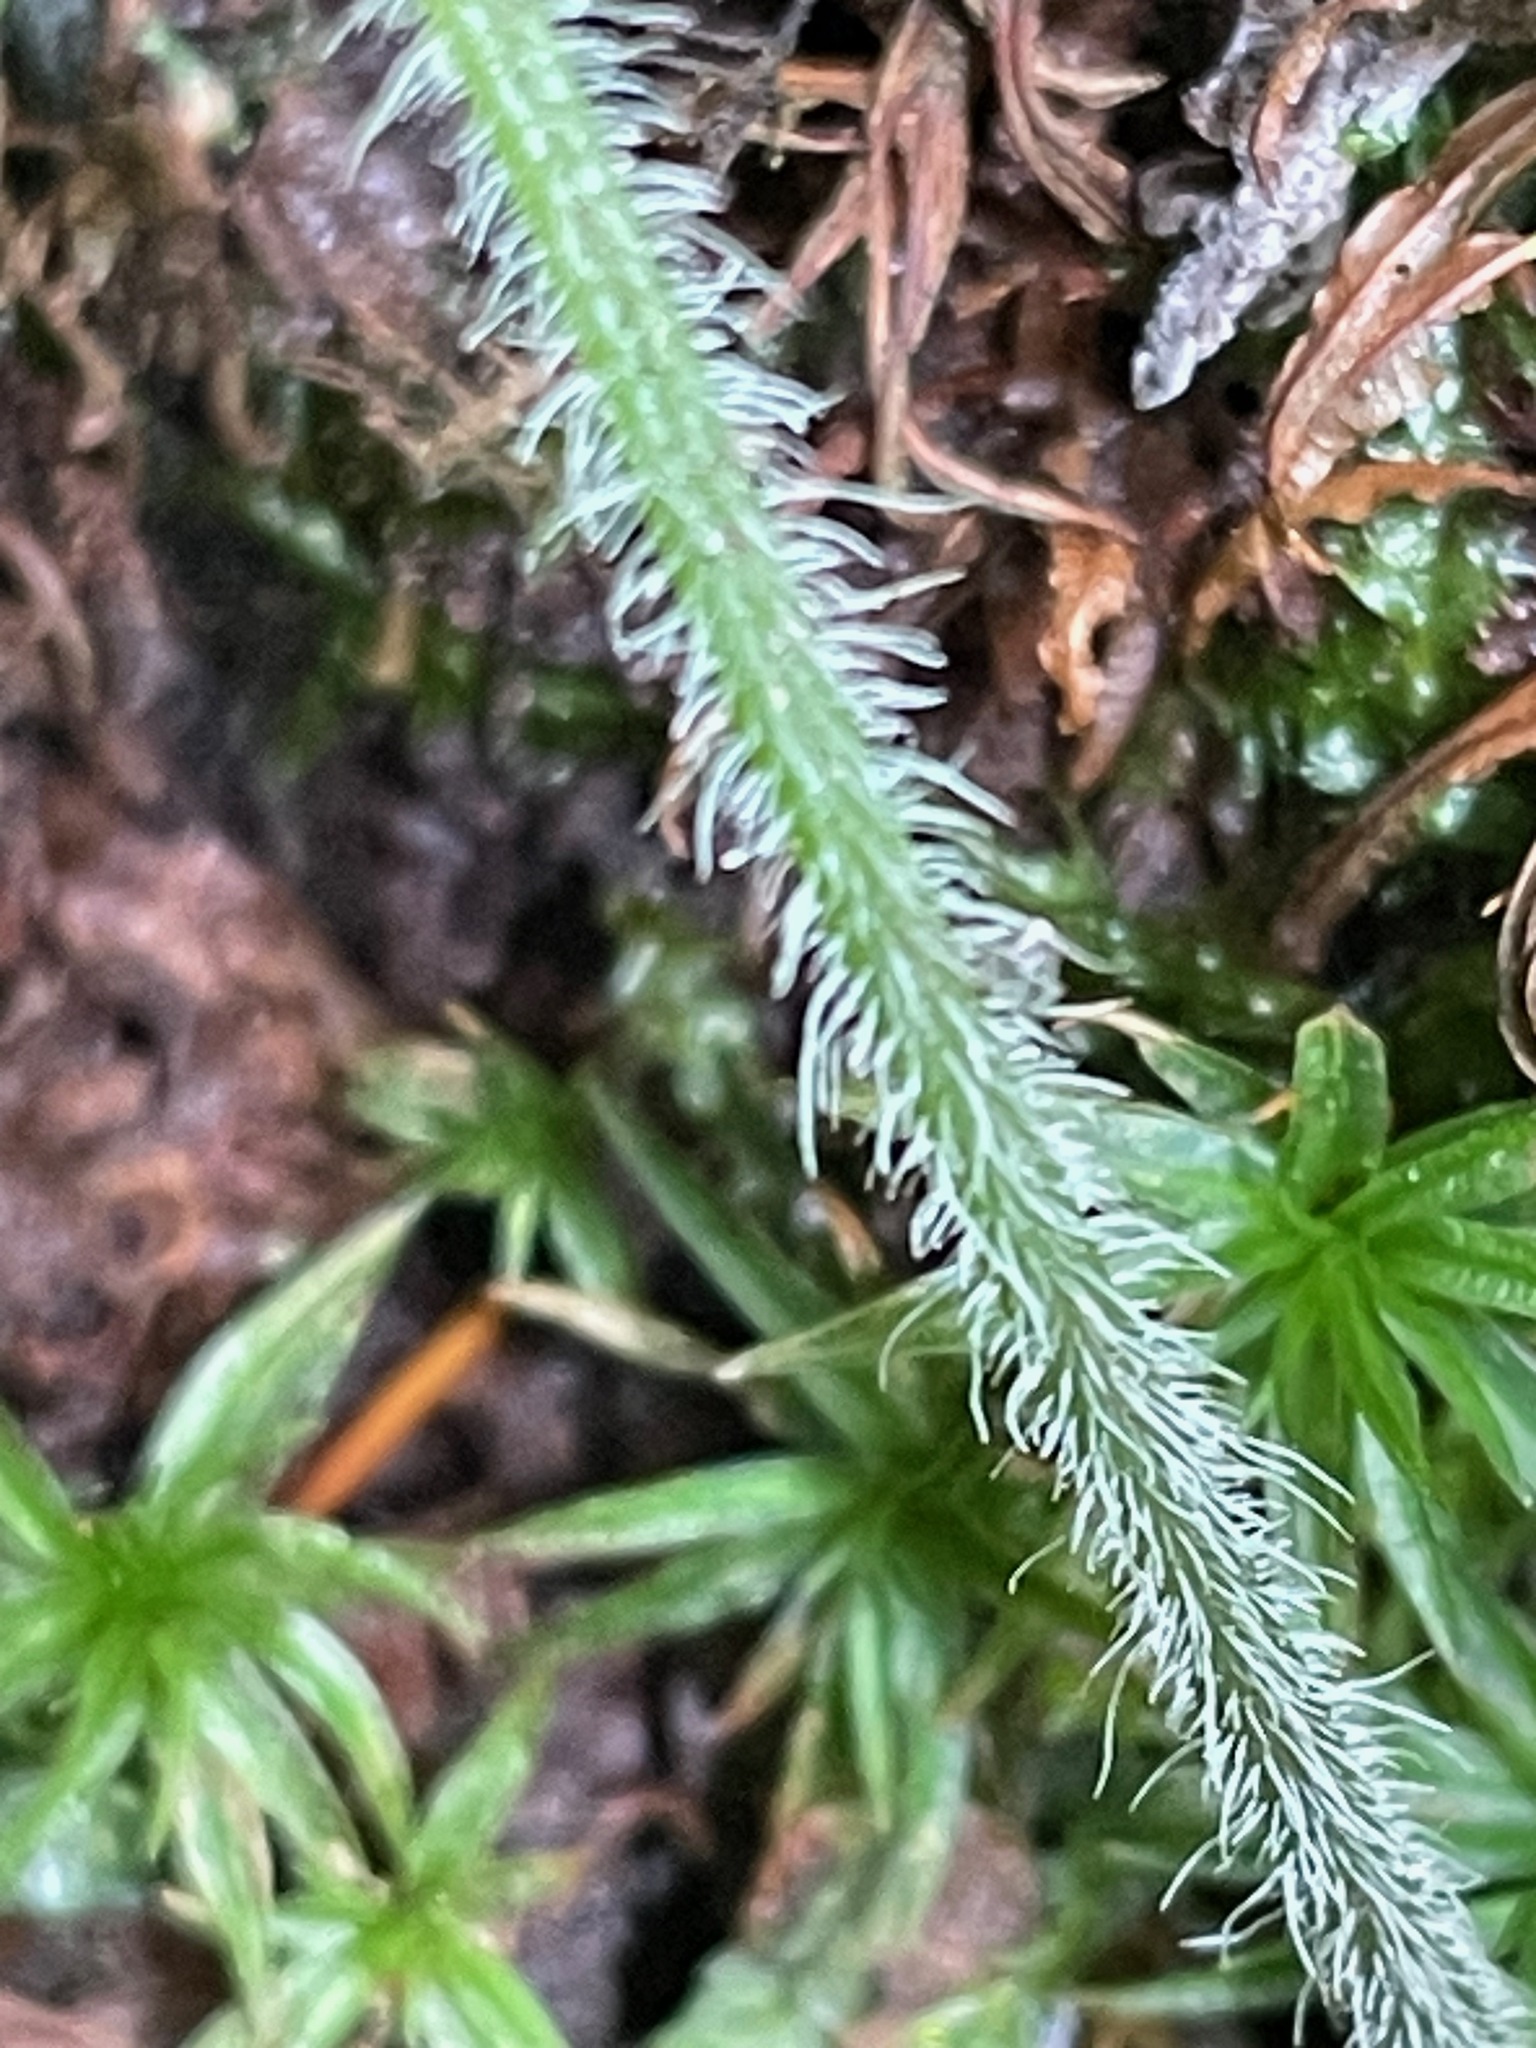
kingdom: Plantae
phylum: Tracheophyta
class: Magnoliopsida
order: Saxifragales
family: Saxifragaceae
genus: Tiarella
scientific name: Tiarella stolonifera
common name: Stoloniferous foamflower
